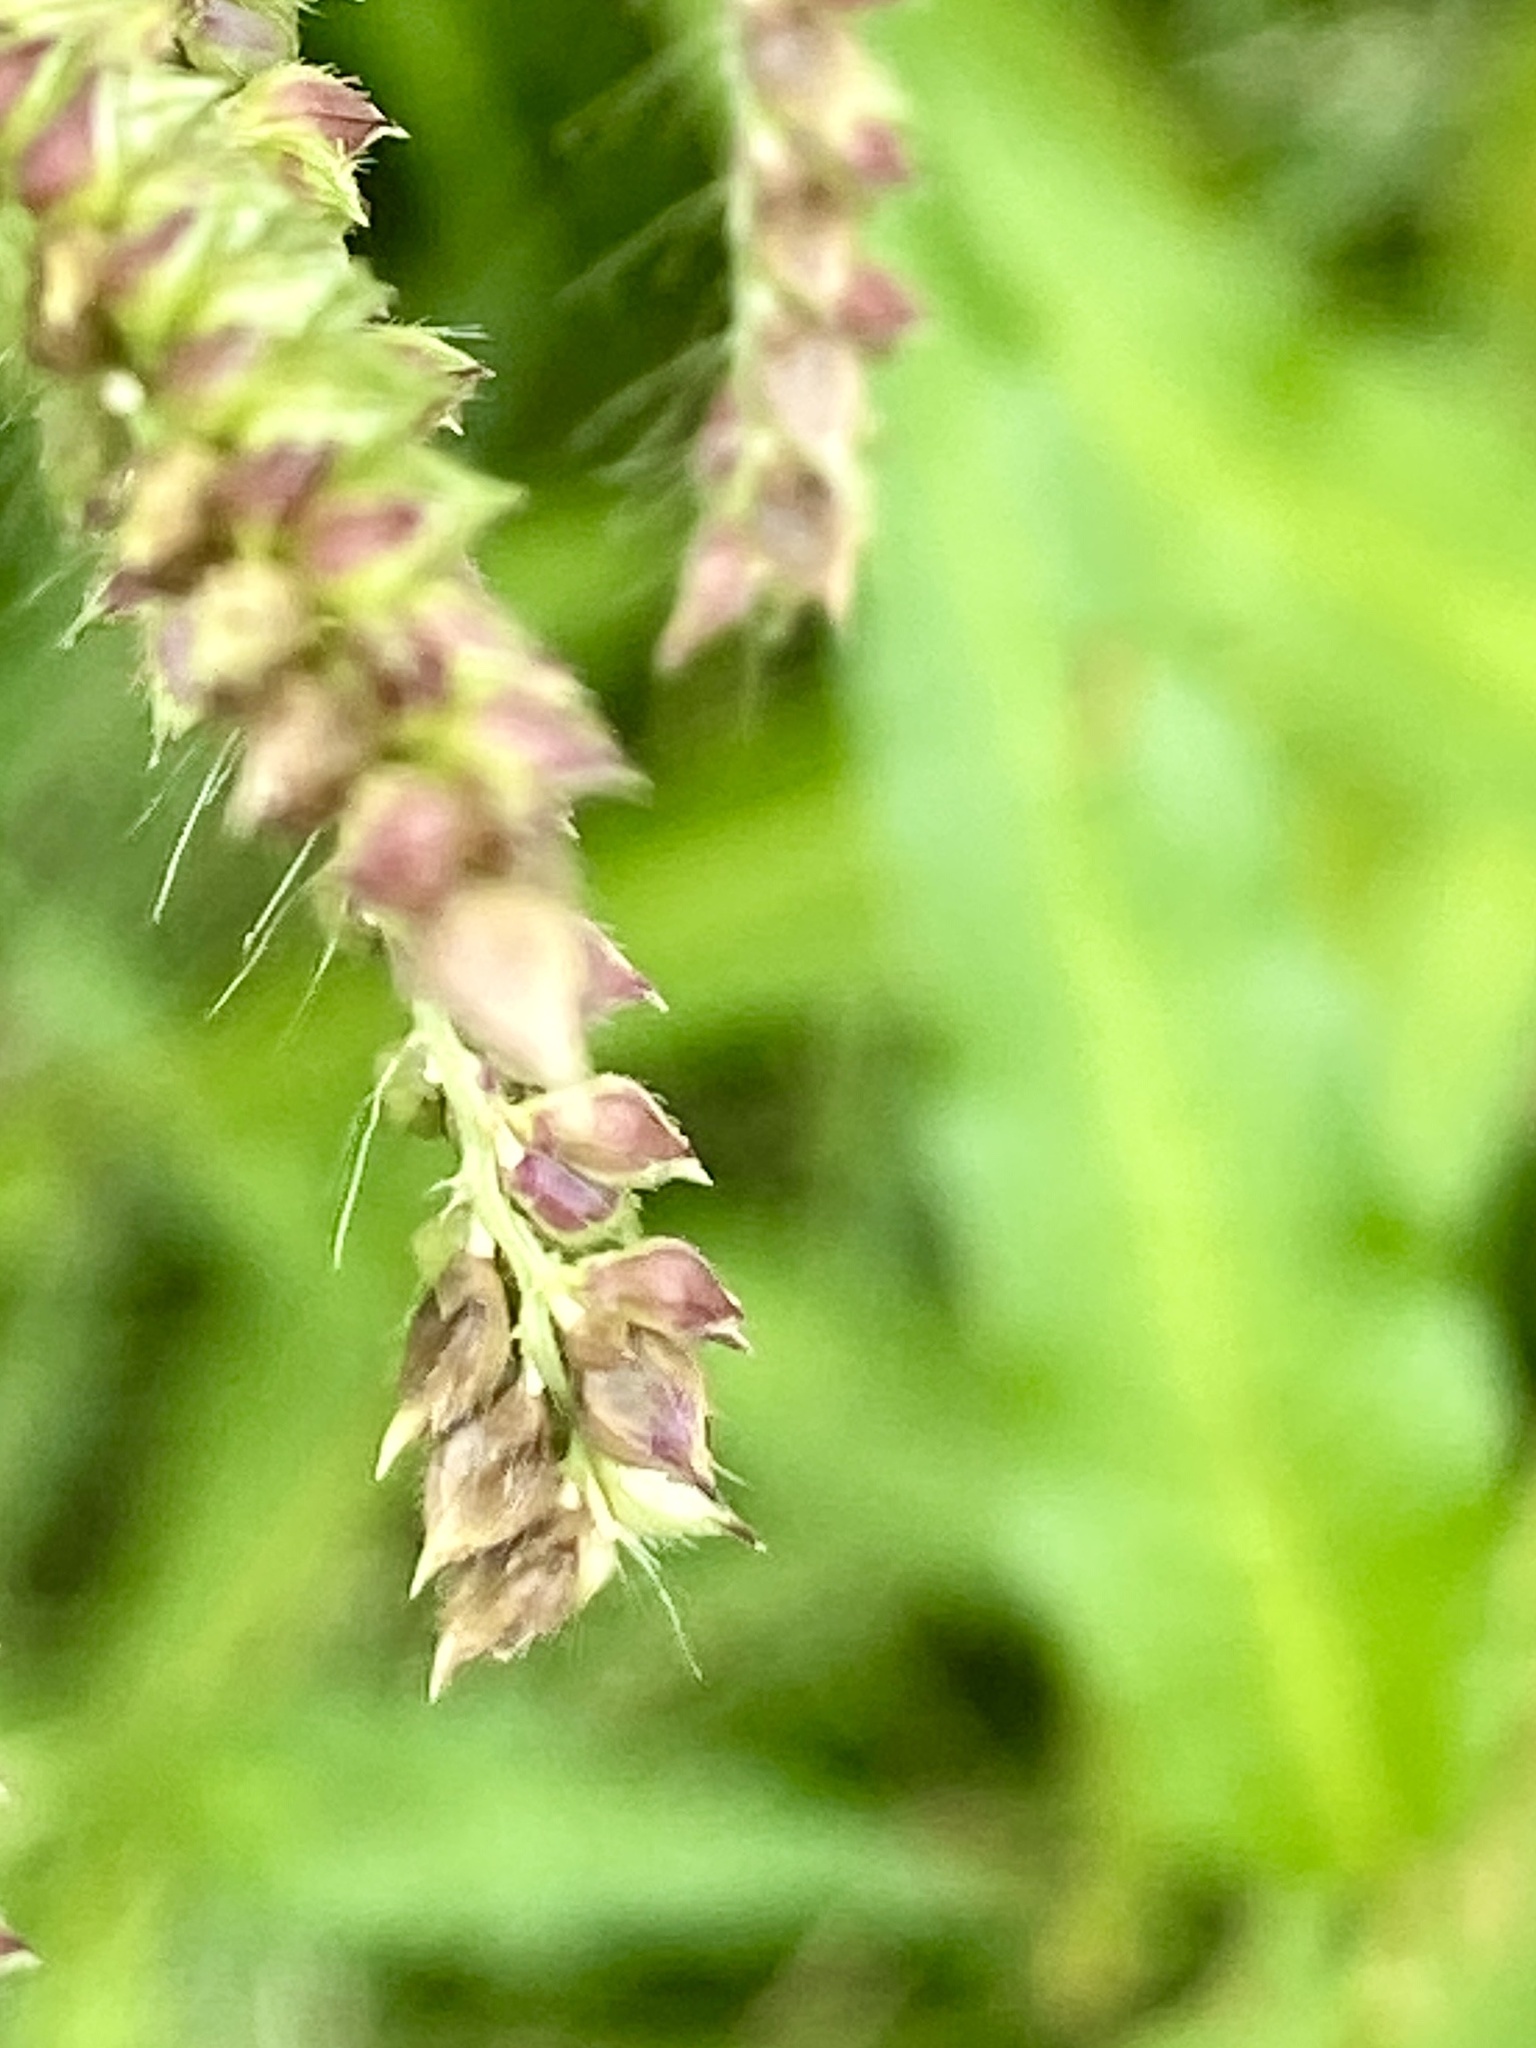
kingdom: Plantae
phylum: Tracheophyta
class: Liliopsida
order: Poales
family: Poaceae
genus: Echinochloa
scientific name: Echinochloa crus-galli
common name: Cockspur
